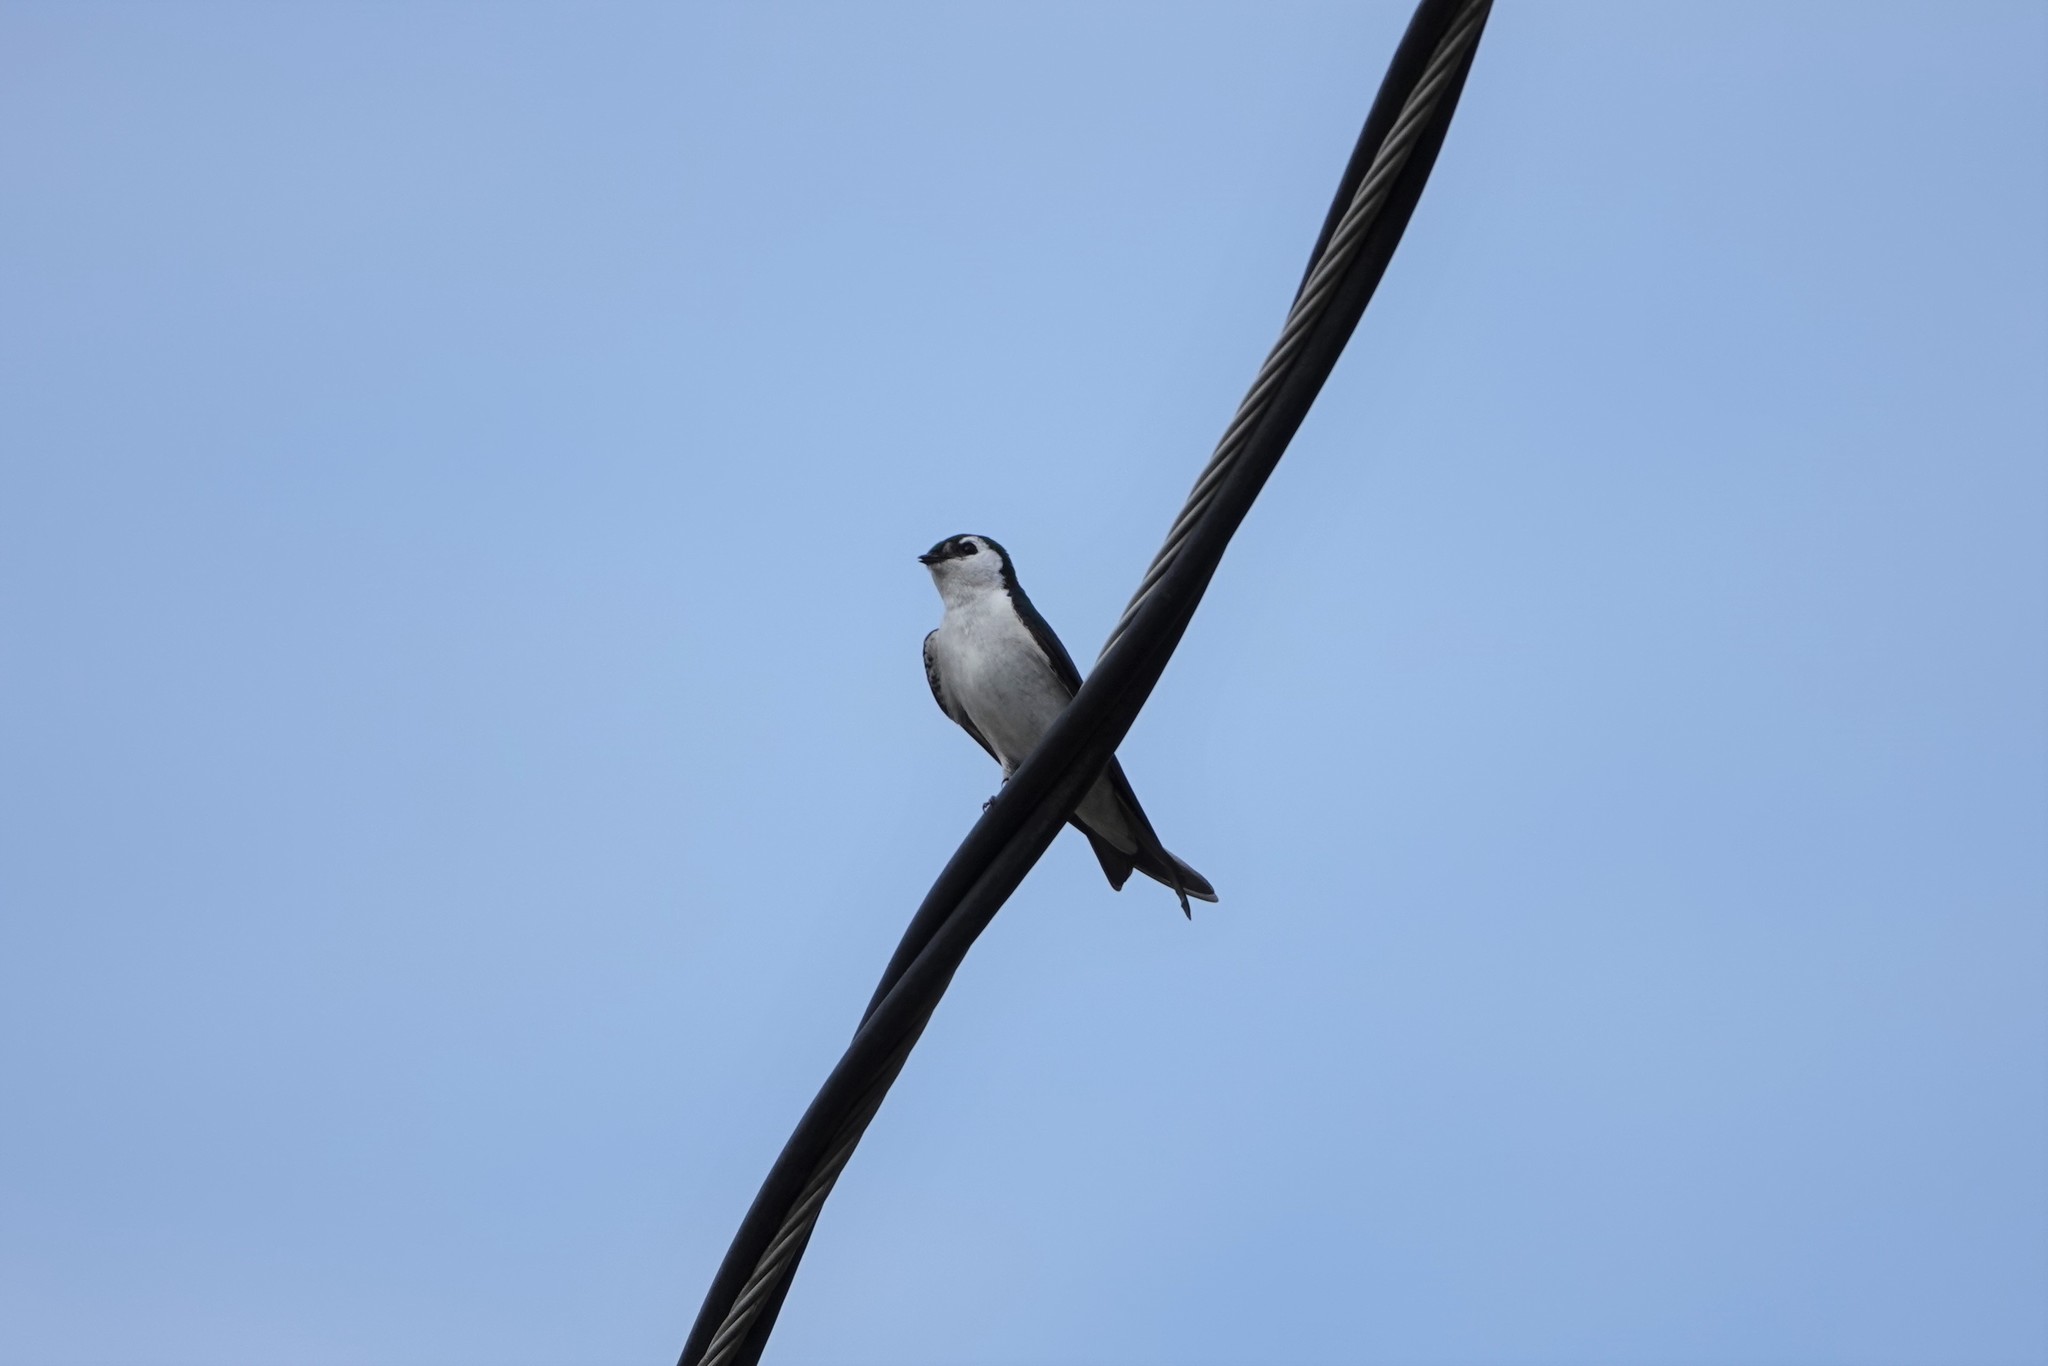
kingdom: Animalia
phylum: Chordata
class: Aves
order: Passeriformes
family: Hirundinidae
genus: Tachycineta
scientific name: Tachycineta thalassina
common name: Violet-green swallow
